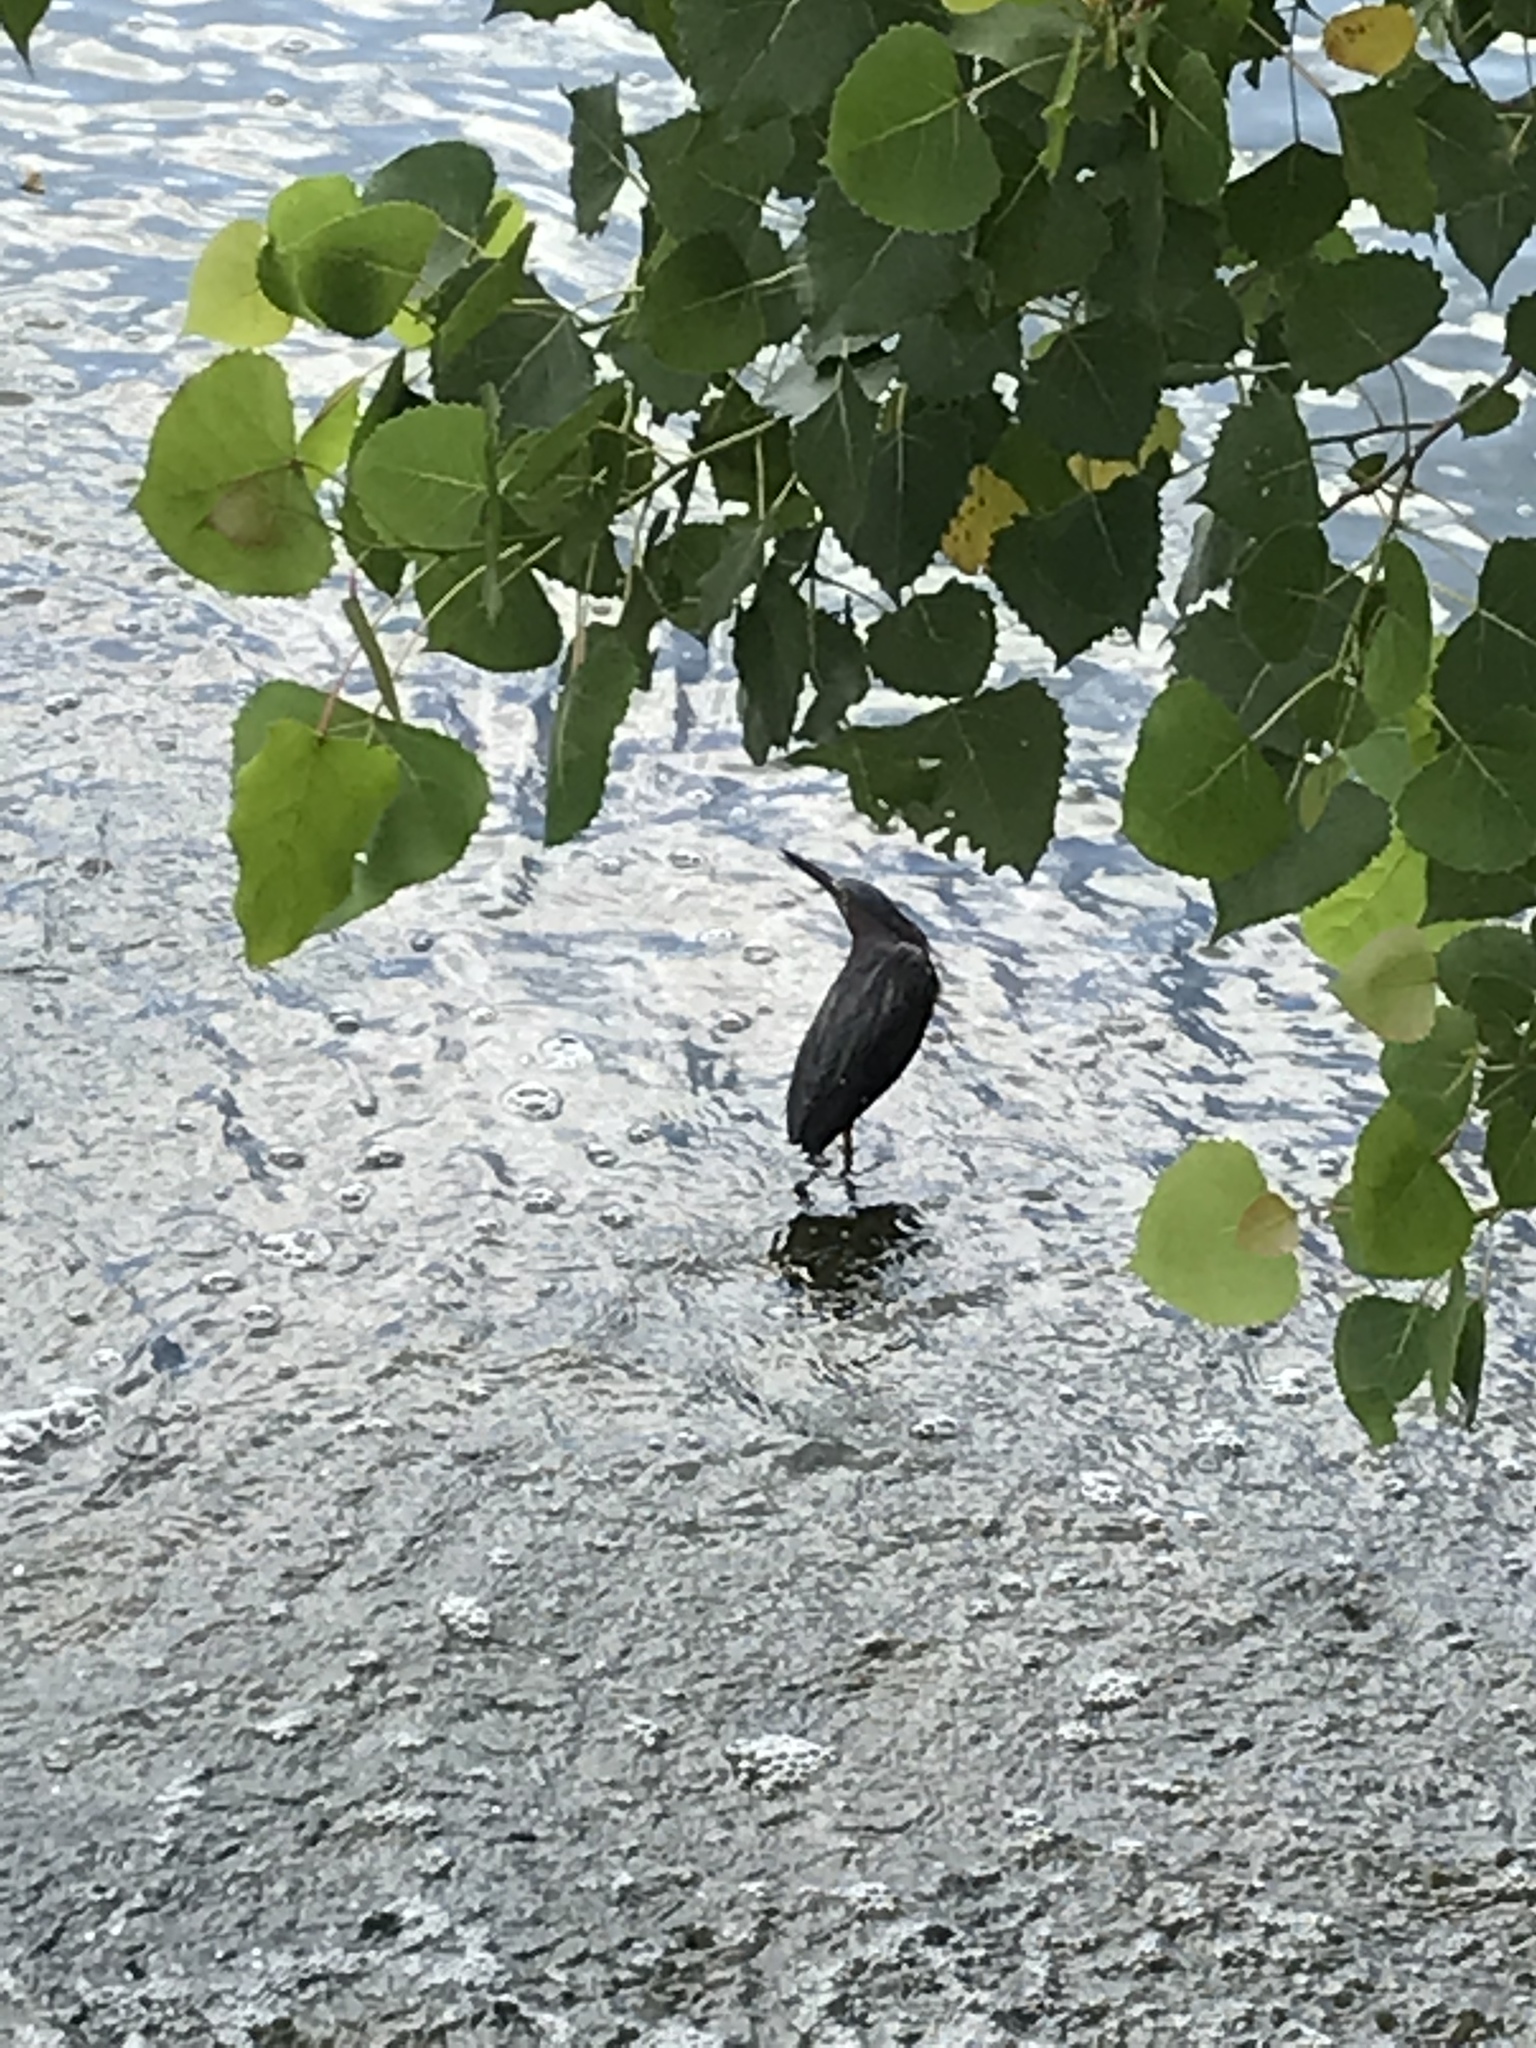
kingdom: Animalia
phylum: Chordata
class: Aves
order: Pelecaniformes
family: Ardeidae
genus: Butorides
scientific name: Butorides virescens
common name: Green heron
